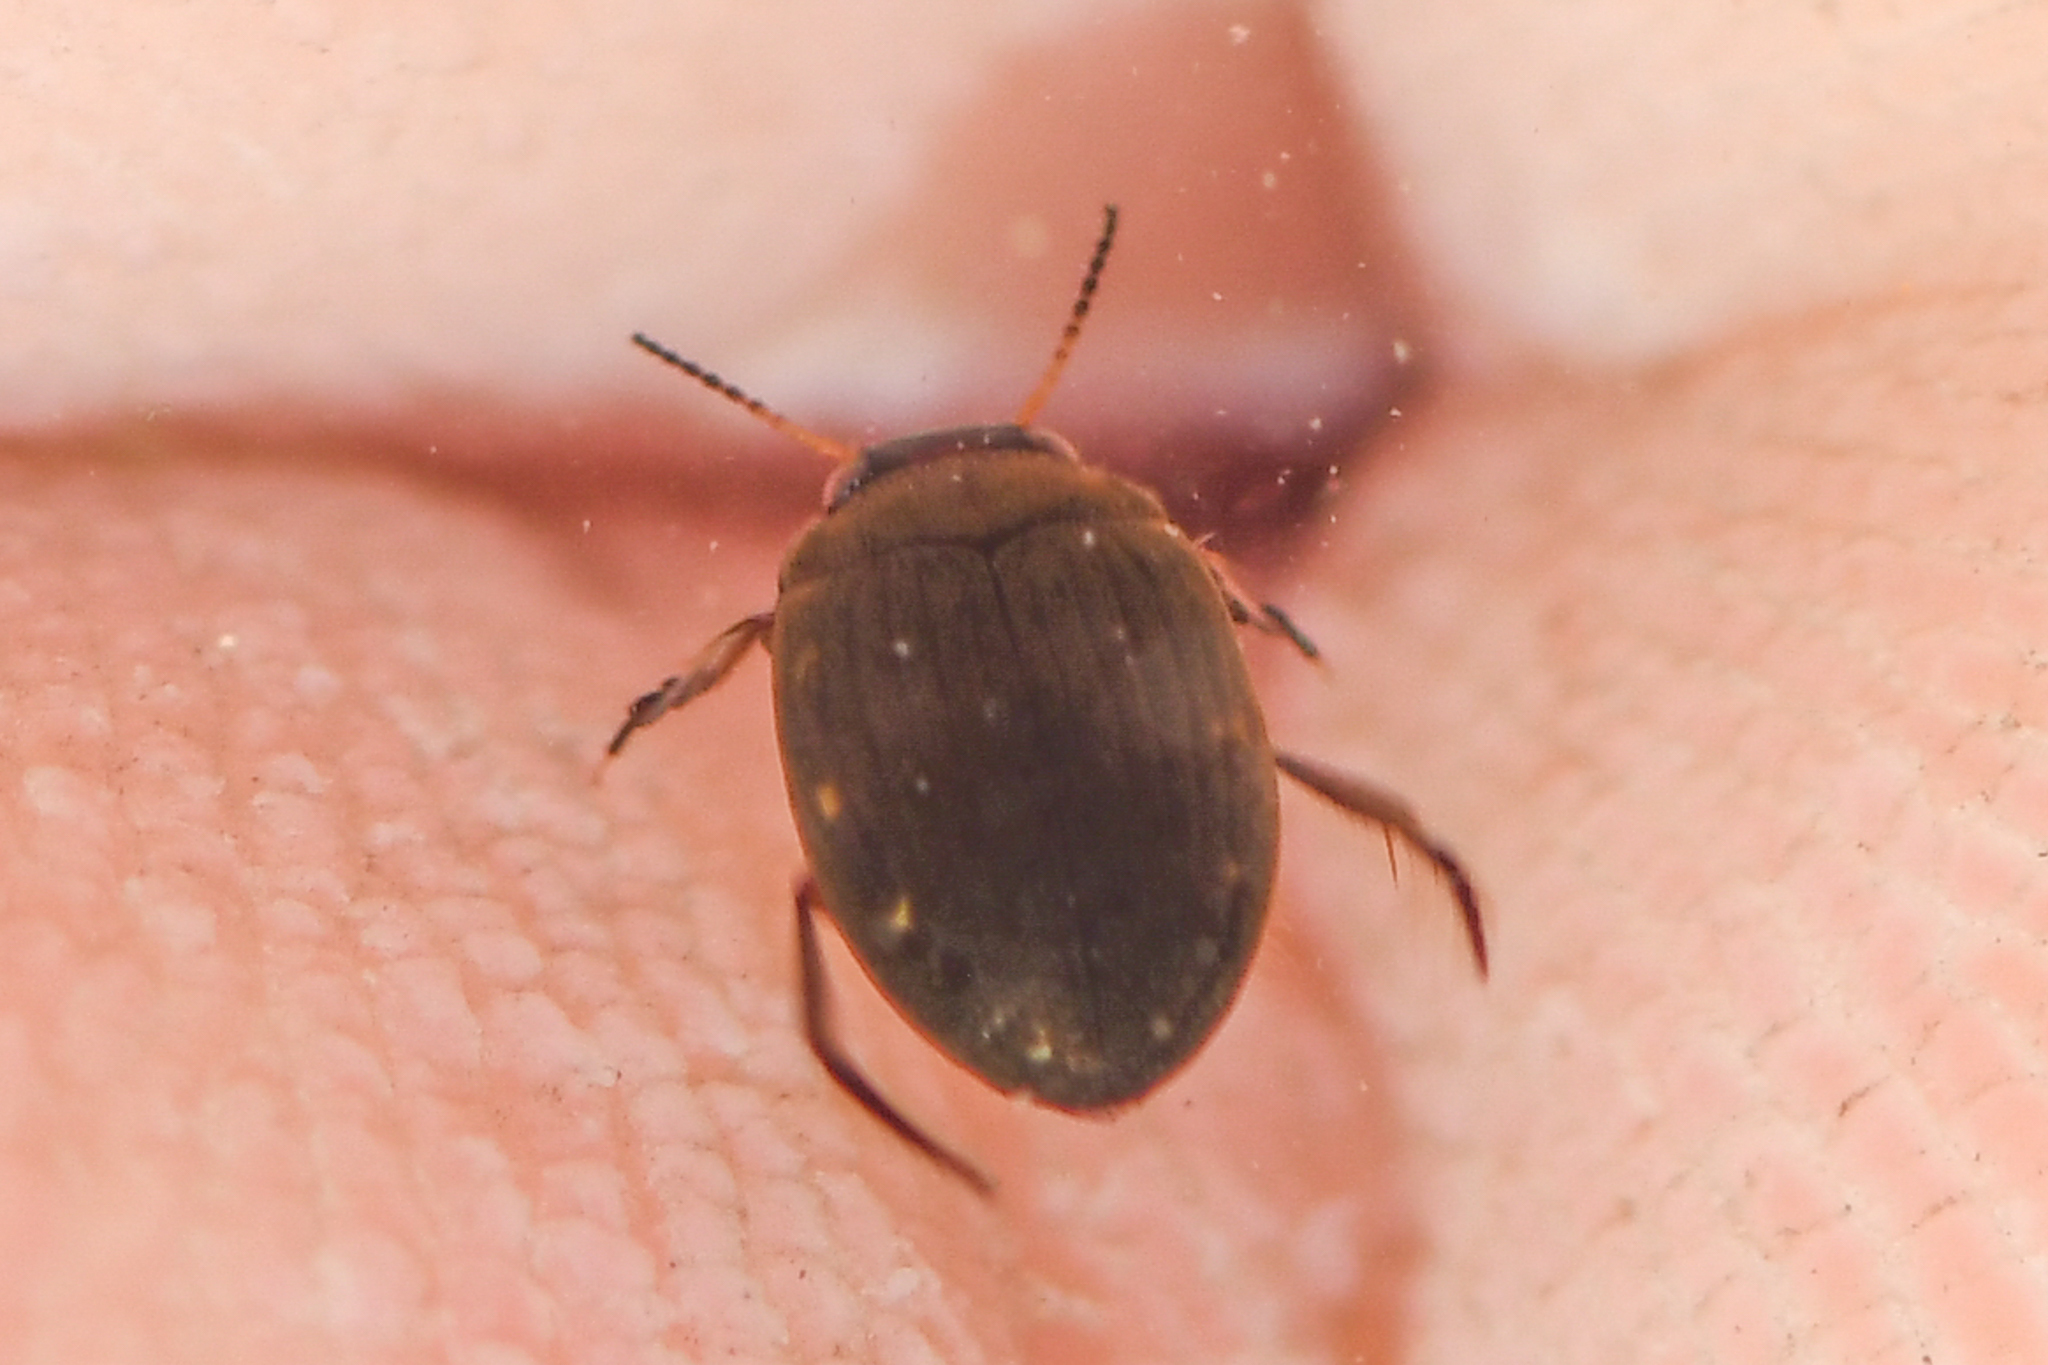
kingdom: Animalia
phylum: Arthropoda
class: Insecta
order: Coleoptera
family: Dytiscidae
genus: Leconectes
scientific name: Leconectes striatellus
